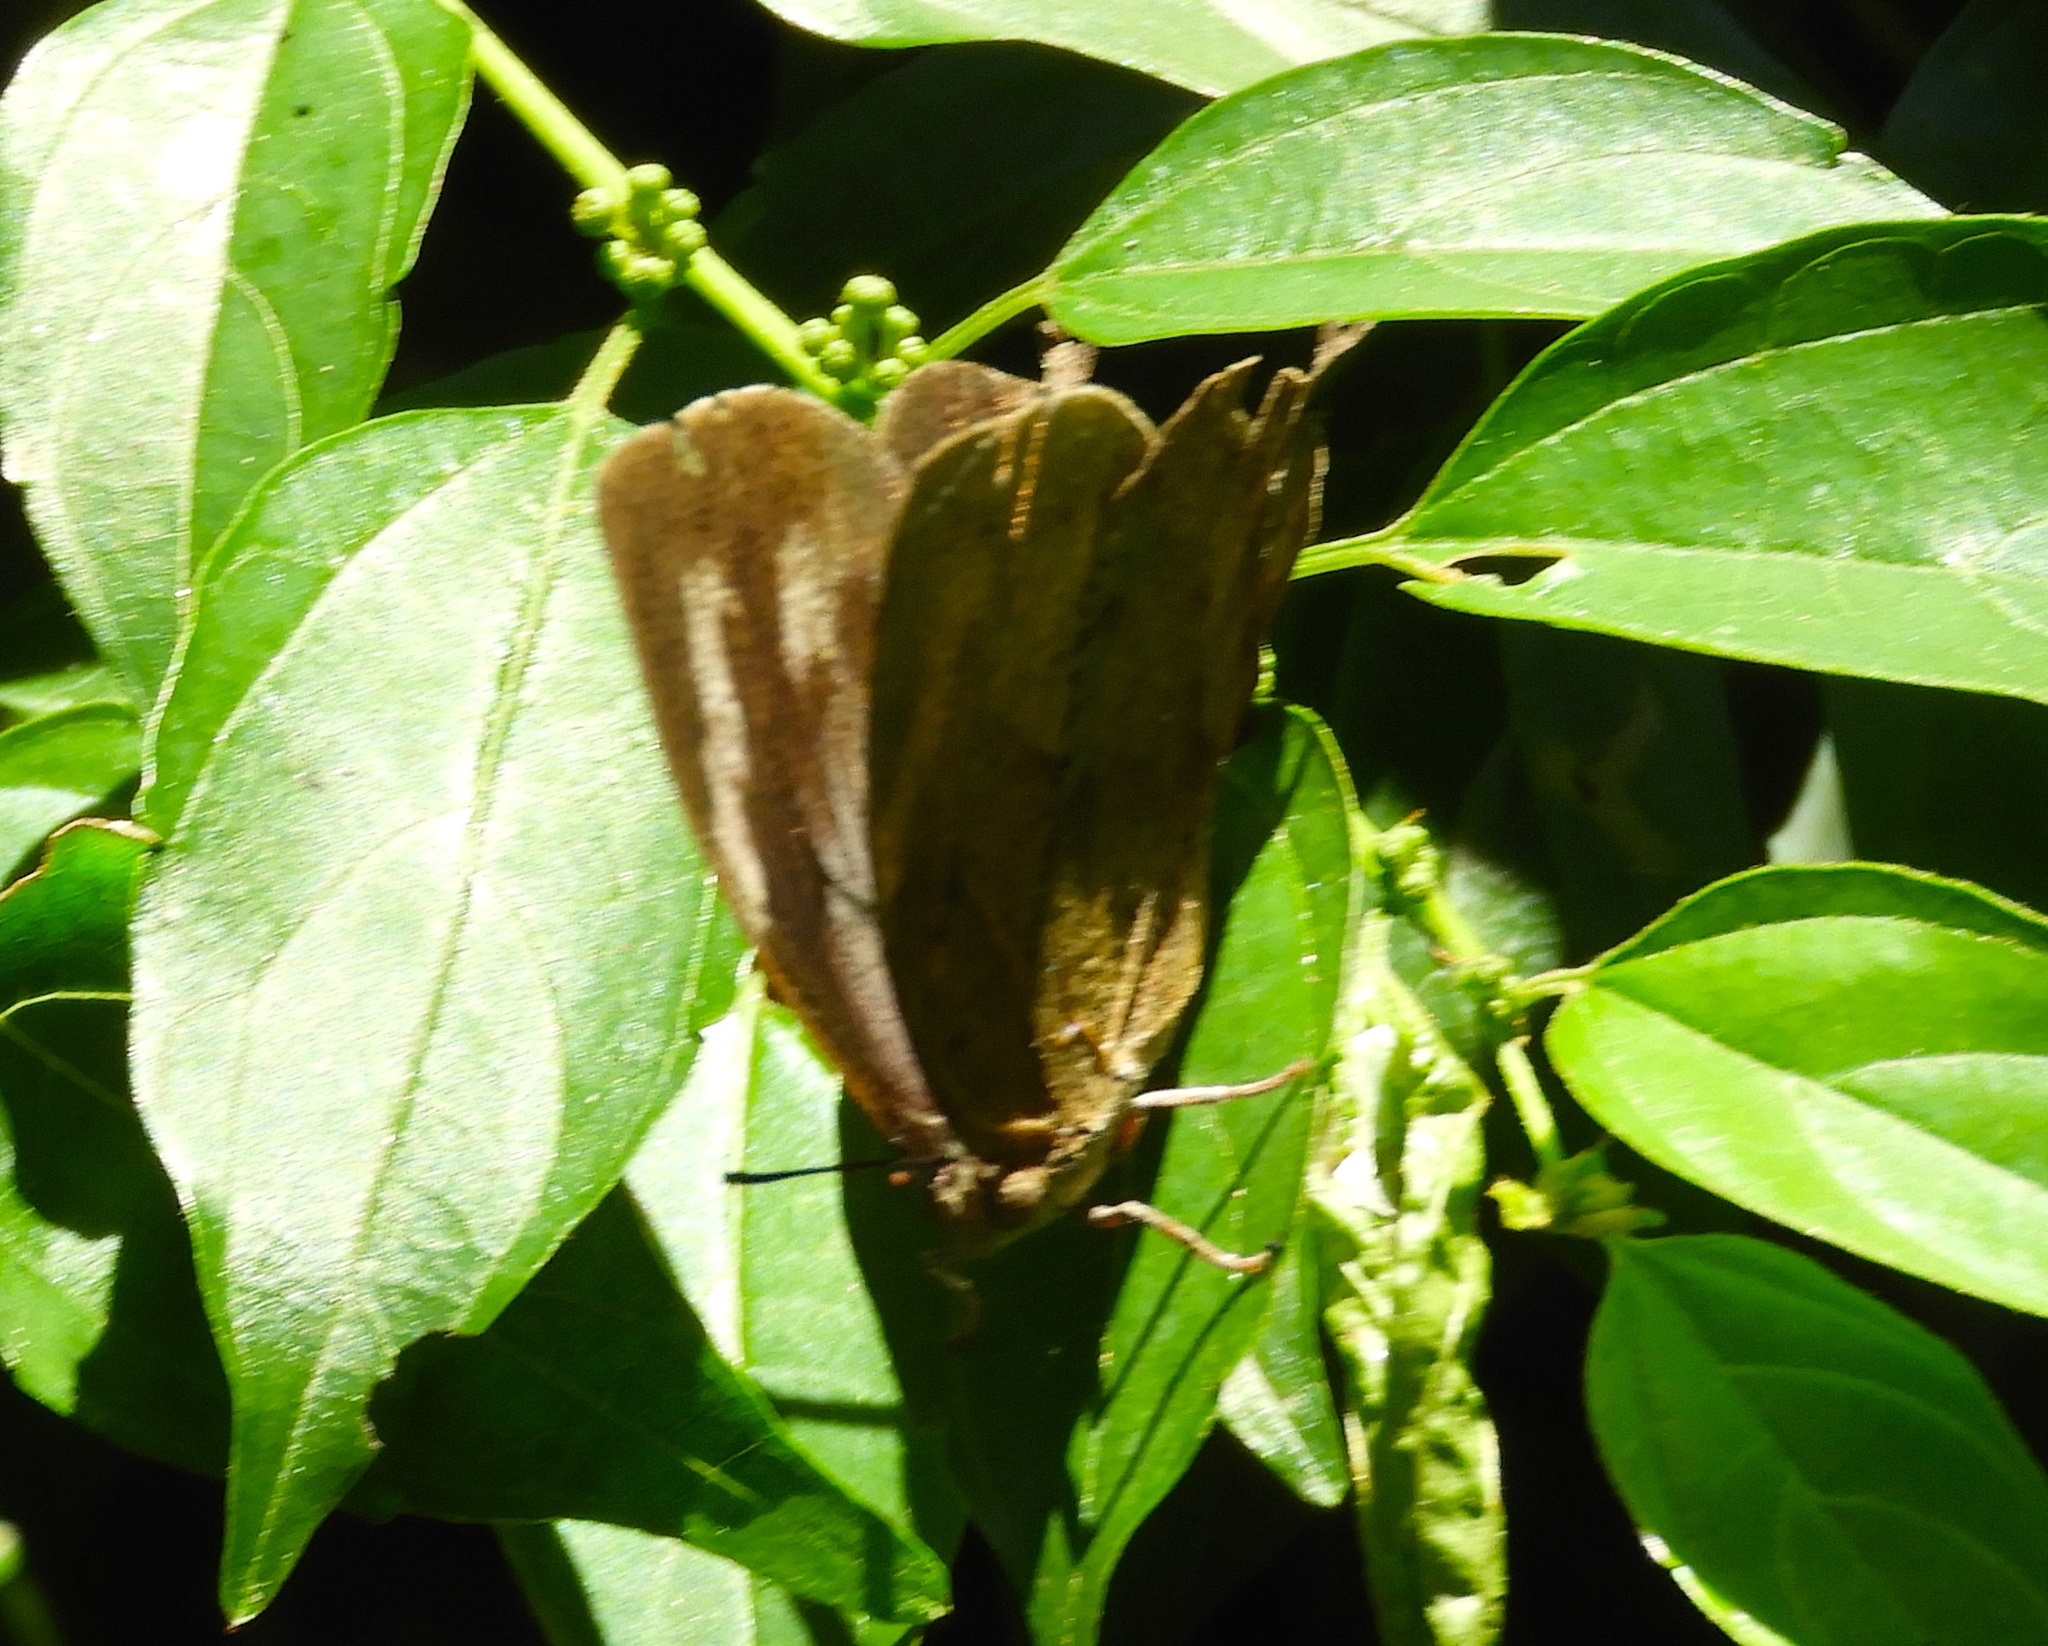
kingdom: Animalia
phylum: Arthropoda
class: Insecta
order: Lepidoptera
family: Nymphalidae
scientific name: Nymphalidae
